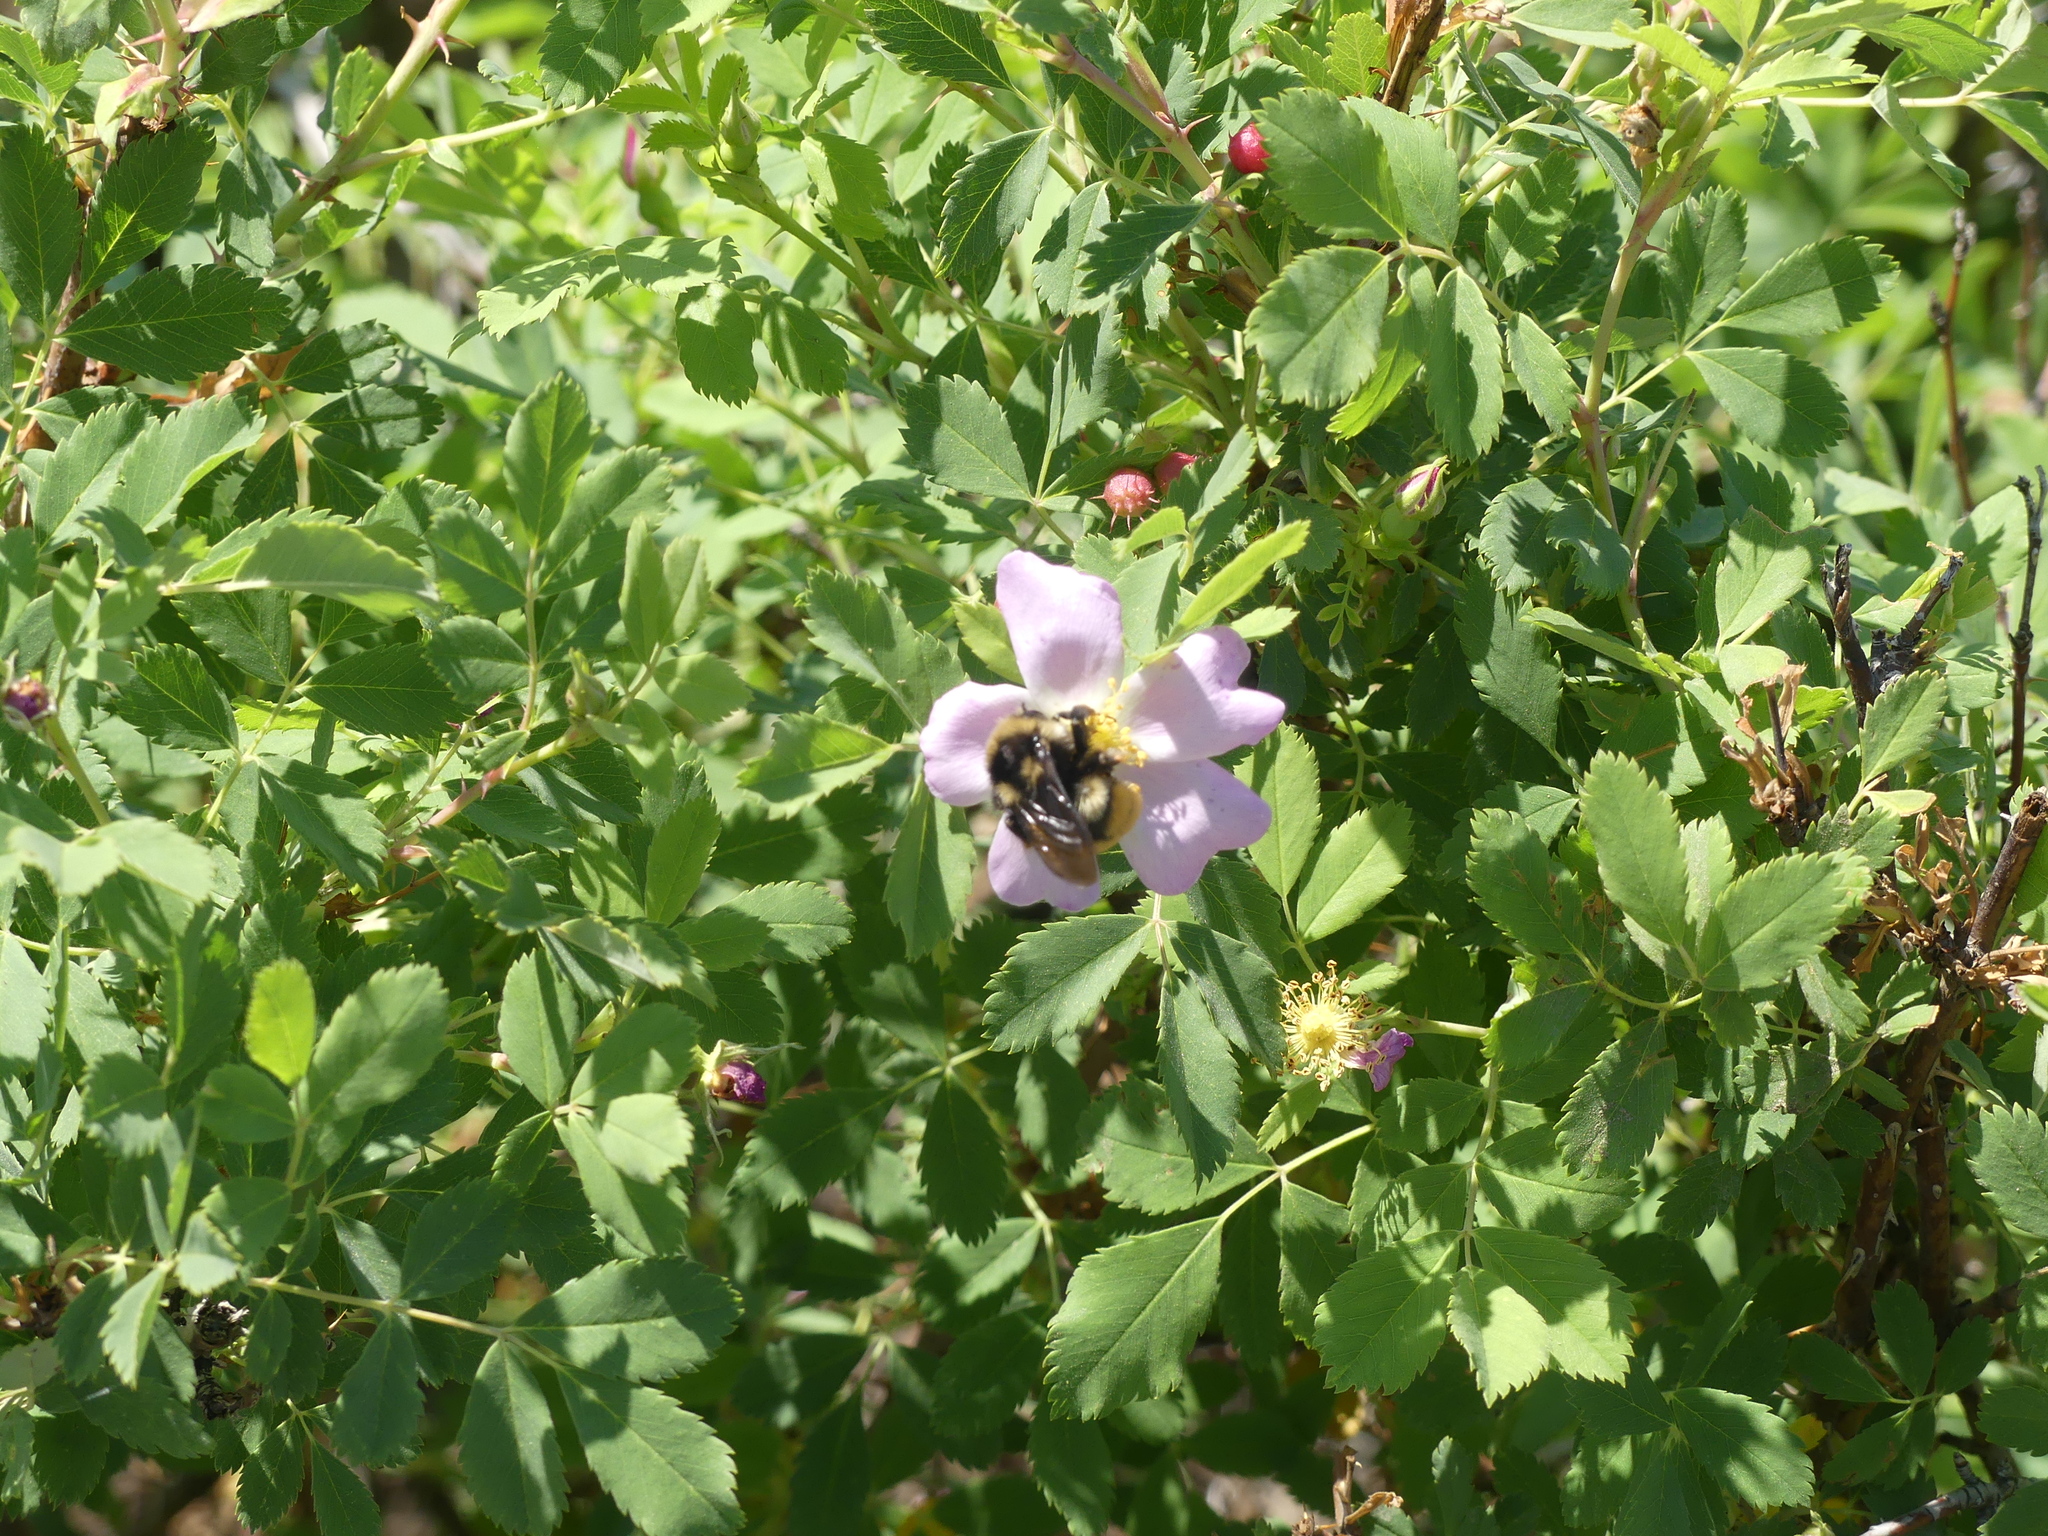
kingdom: Animalia
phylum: Arthropoda
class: Insecta
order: Hymenoptera
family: Apidae
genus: Bombus
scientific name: Bombus vancouverensis
